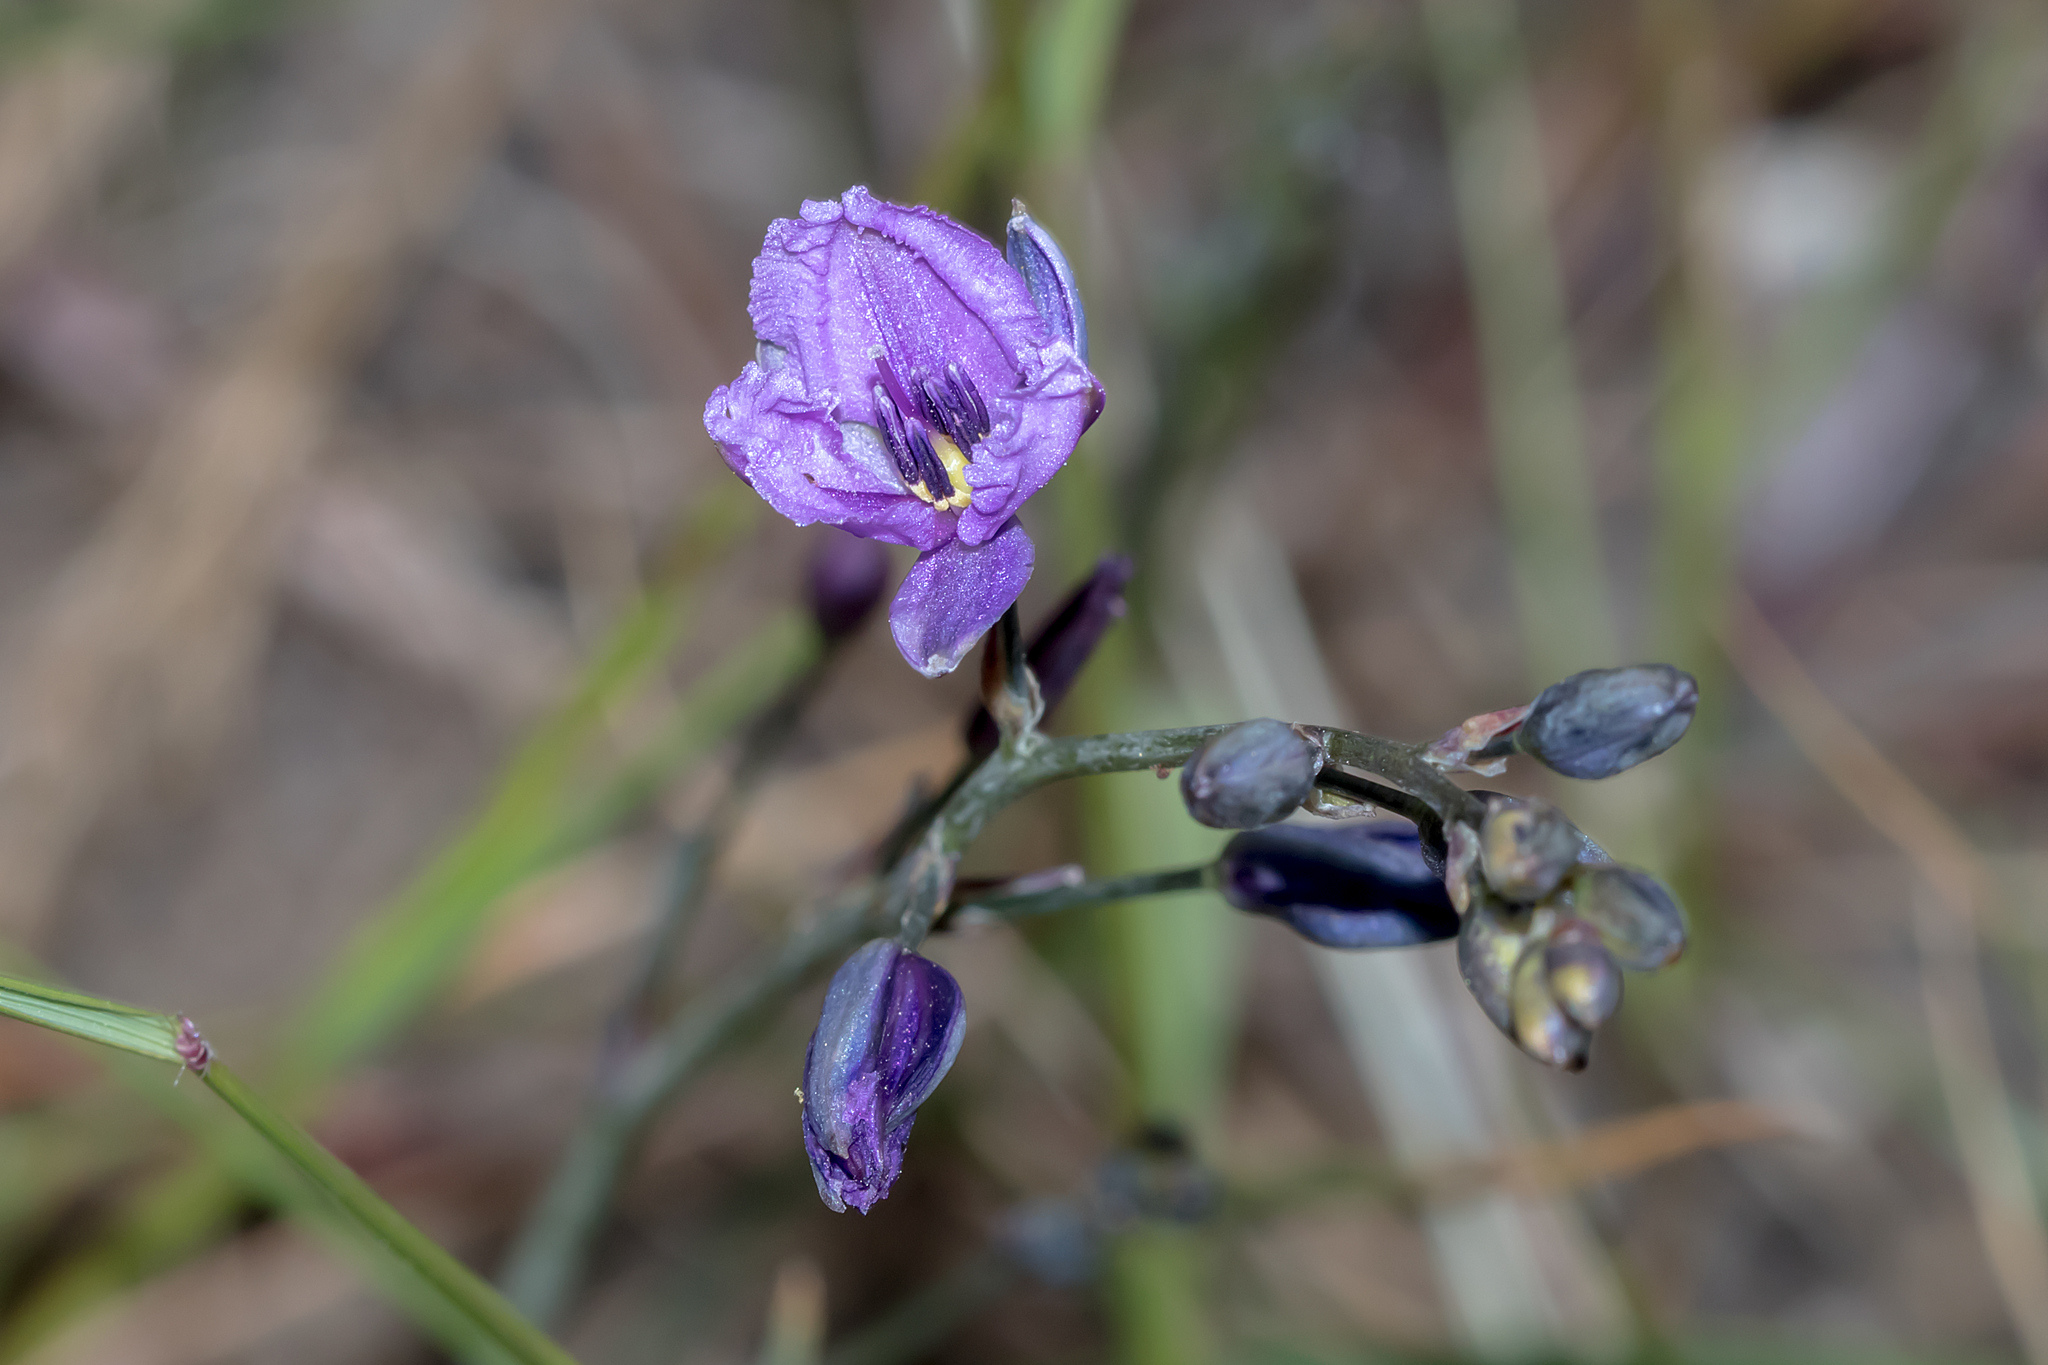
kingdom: Plantae
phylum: Tracheophyta
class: Liliopsida
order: Asparagales
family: Asparagaceae
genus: Arthropodium
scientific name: Arthropodium strictum
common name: Chocolate-lily
